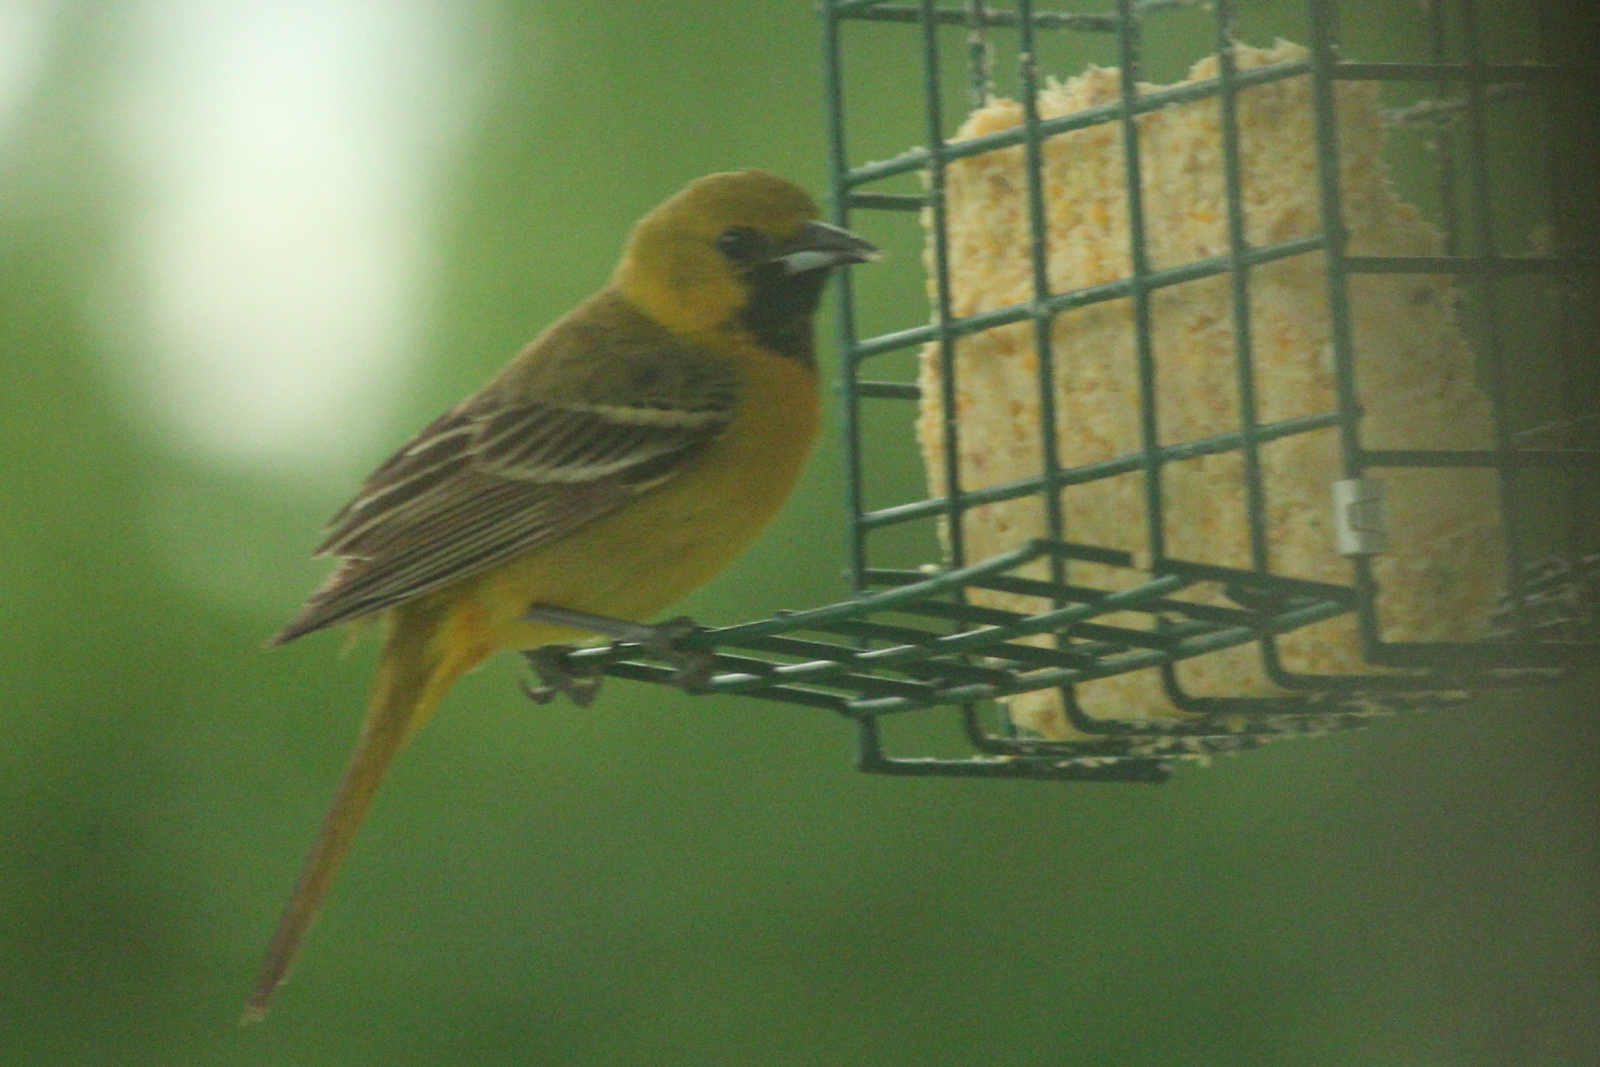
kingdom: Animalia
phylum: Chordata
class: Aves
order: Passeriformes
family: Icteridae
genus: Icterus
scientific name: Icterus spurius
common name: Orchard oriole
